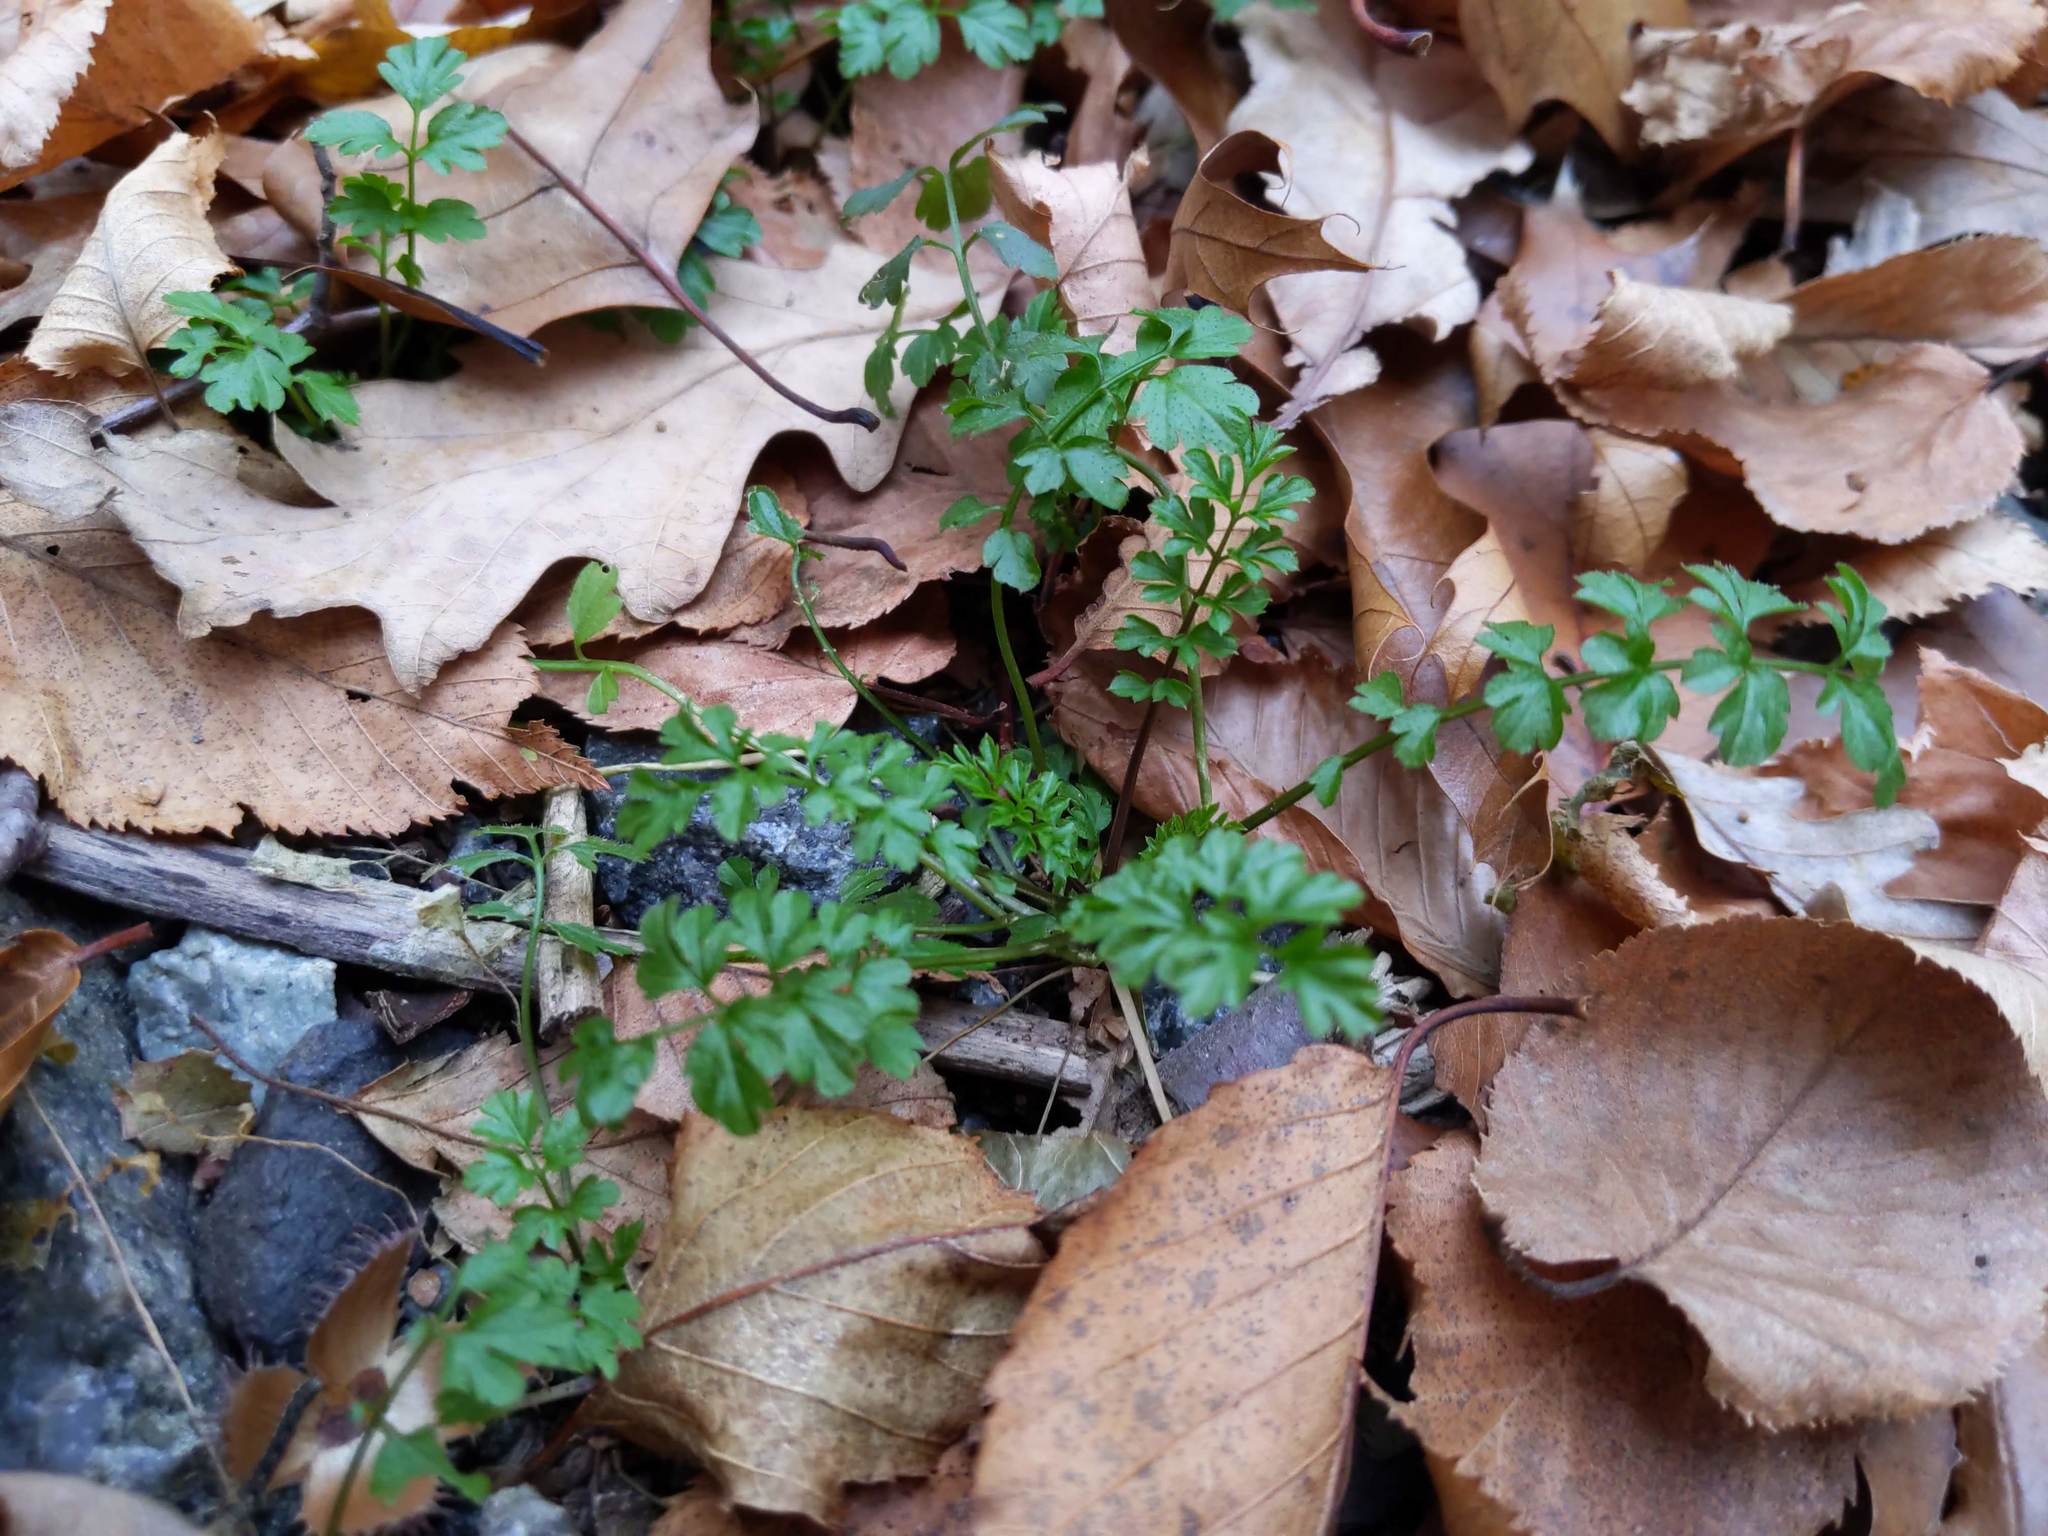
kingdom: Plantae
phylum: Tracheophyta
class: Magnoliopsida
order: Brassicales
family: Brassicaceae
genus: Cardamine
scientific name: Cardamine impatiens
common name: Narrow-leaved bitter-cress
